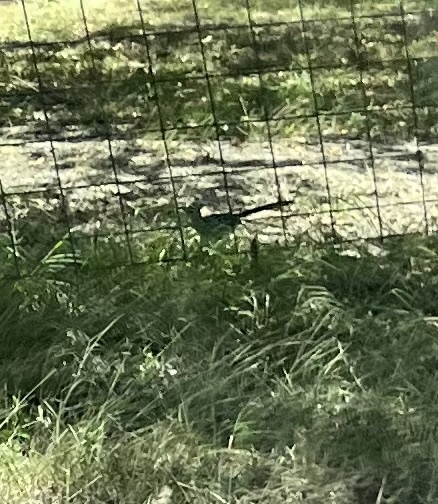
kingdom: Animalia
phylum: Chordata
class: Aves
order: Cuculiformes
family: Cuculidae
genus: Geococcyx
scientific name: Geococcyx californianus
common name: Greater roadrunner
